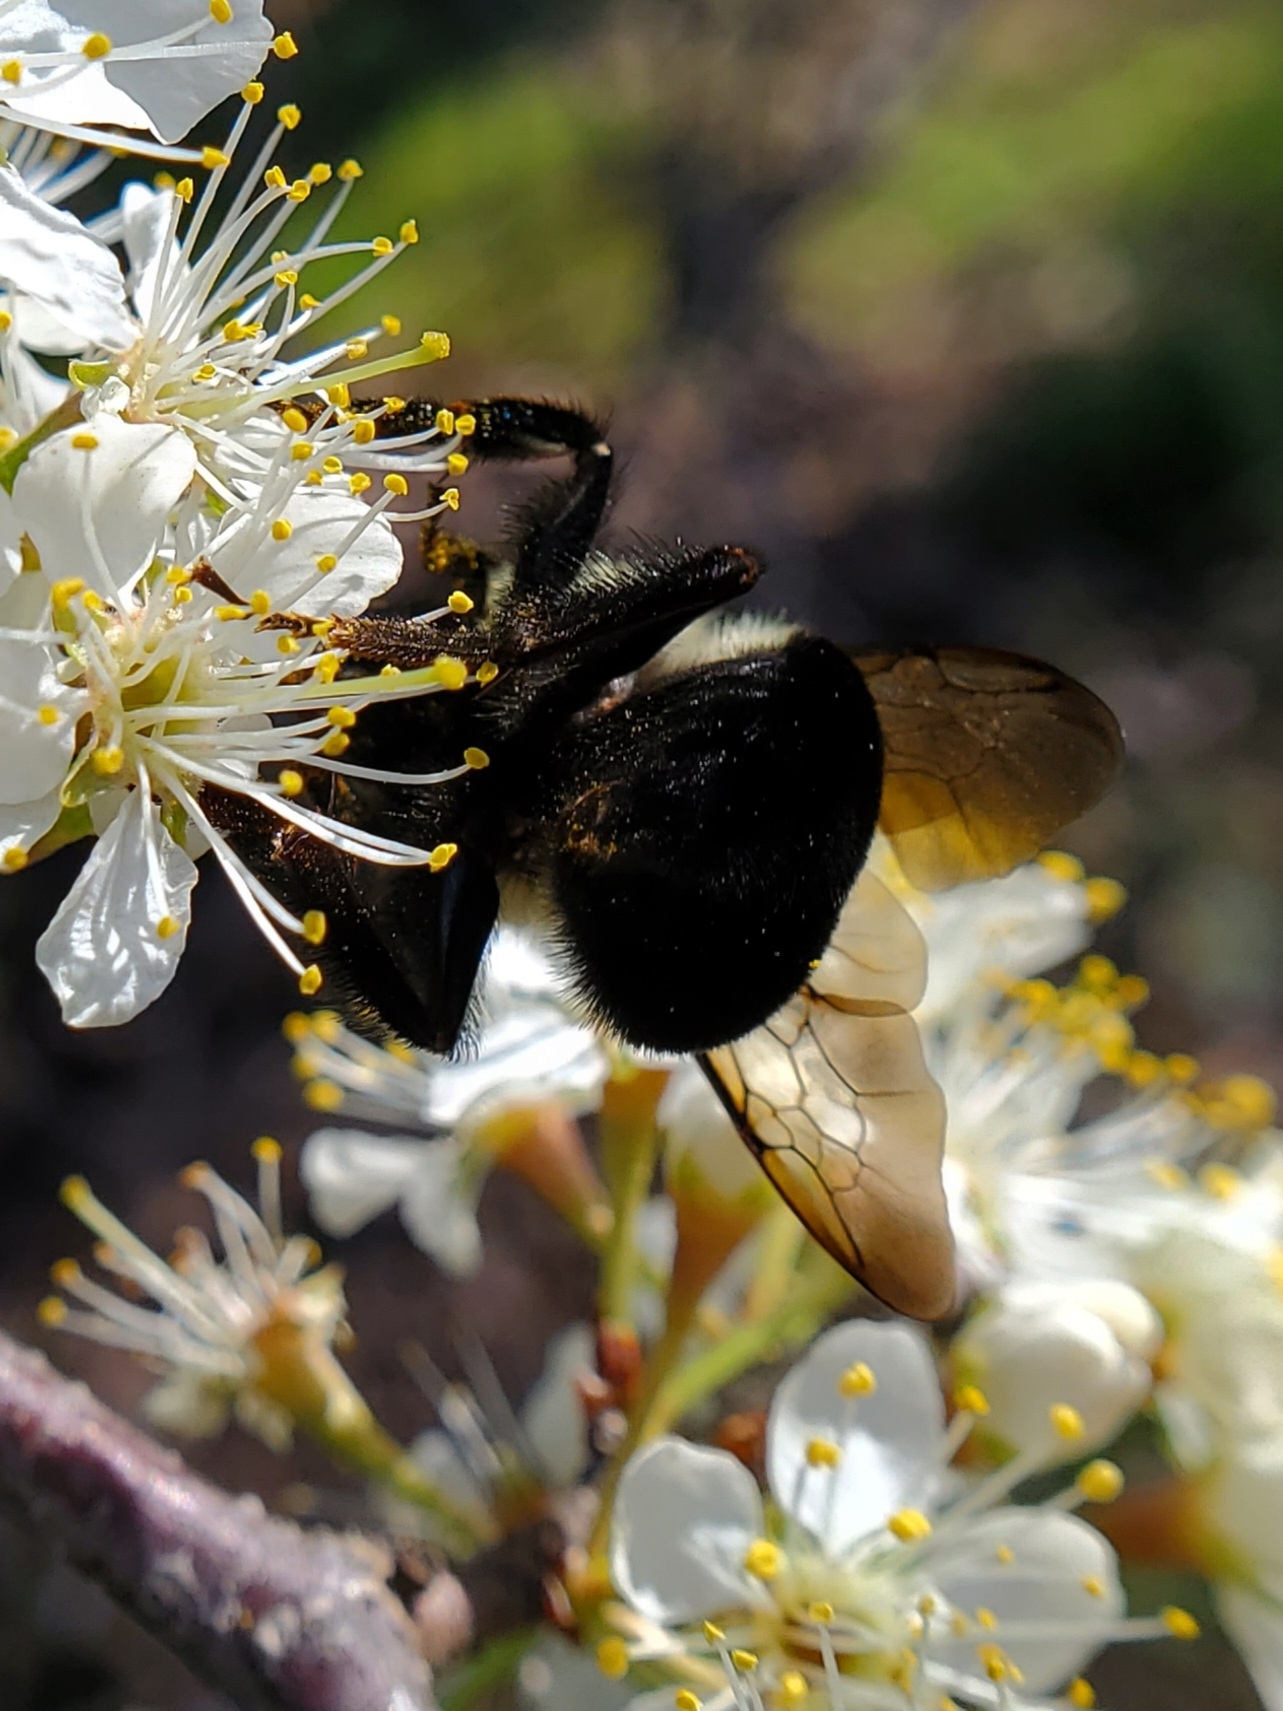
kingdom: Animalia
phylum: Arthropoda
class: Insecta
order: Hymenoptera
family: Apidae
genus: Bombus
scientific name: Bombus impatiens
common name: Common eastern bumble bee
